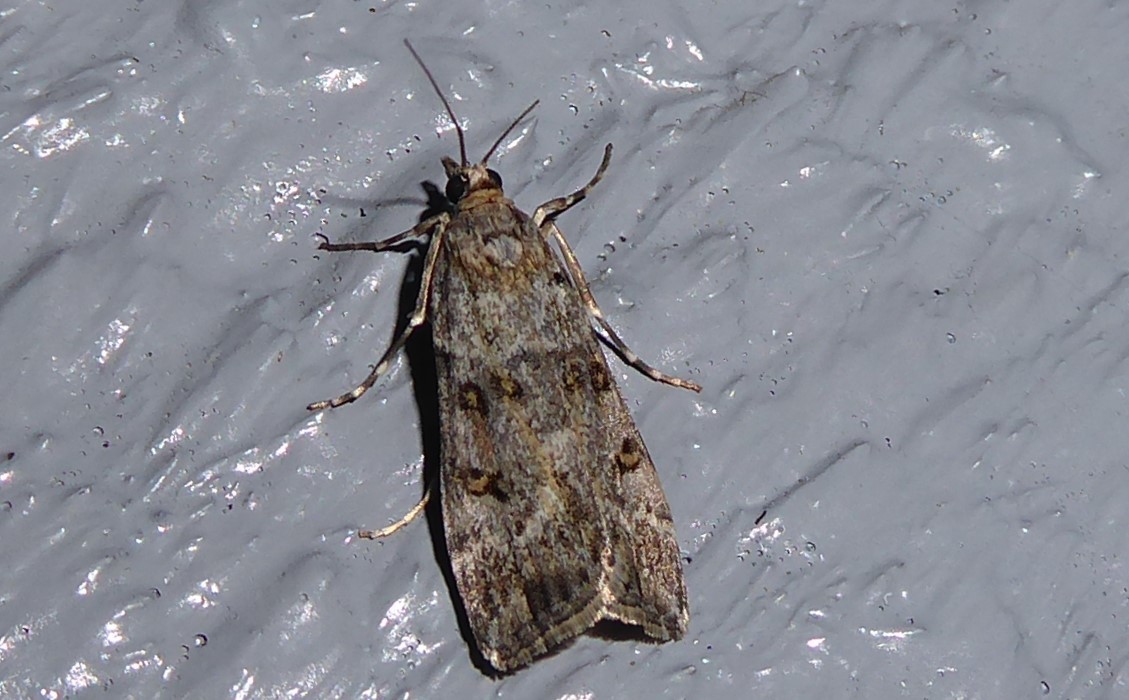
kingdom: Animalia
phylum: Arthropoda
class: Insecta
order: Lepidoptera
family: Crambidae
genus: Eudonia
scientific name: Eudonia diphtheralis
